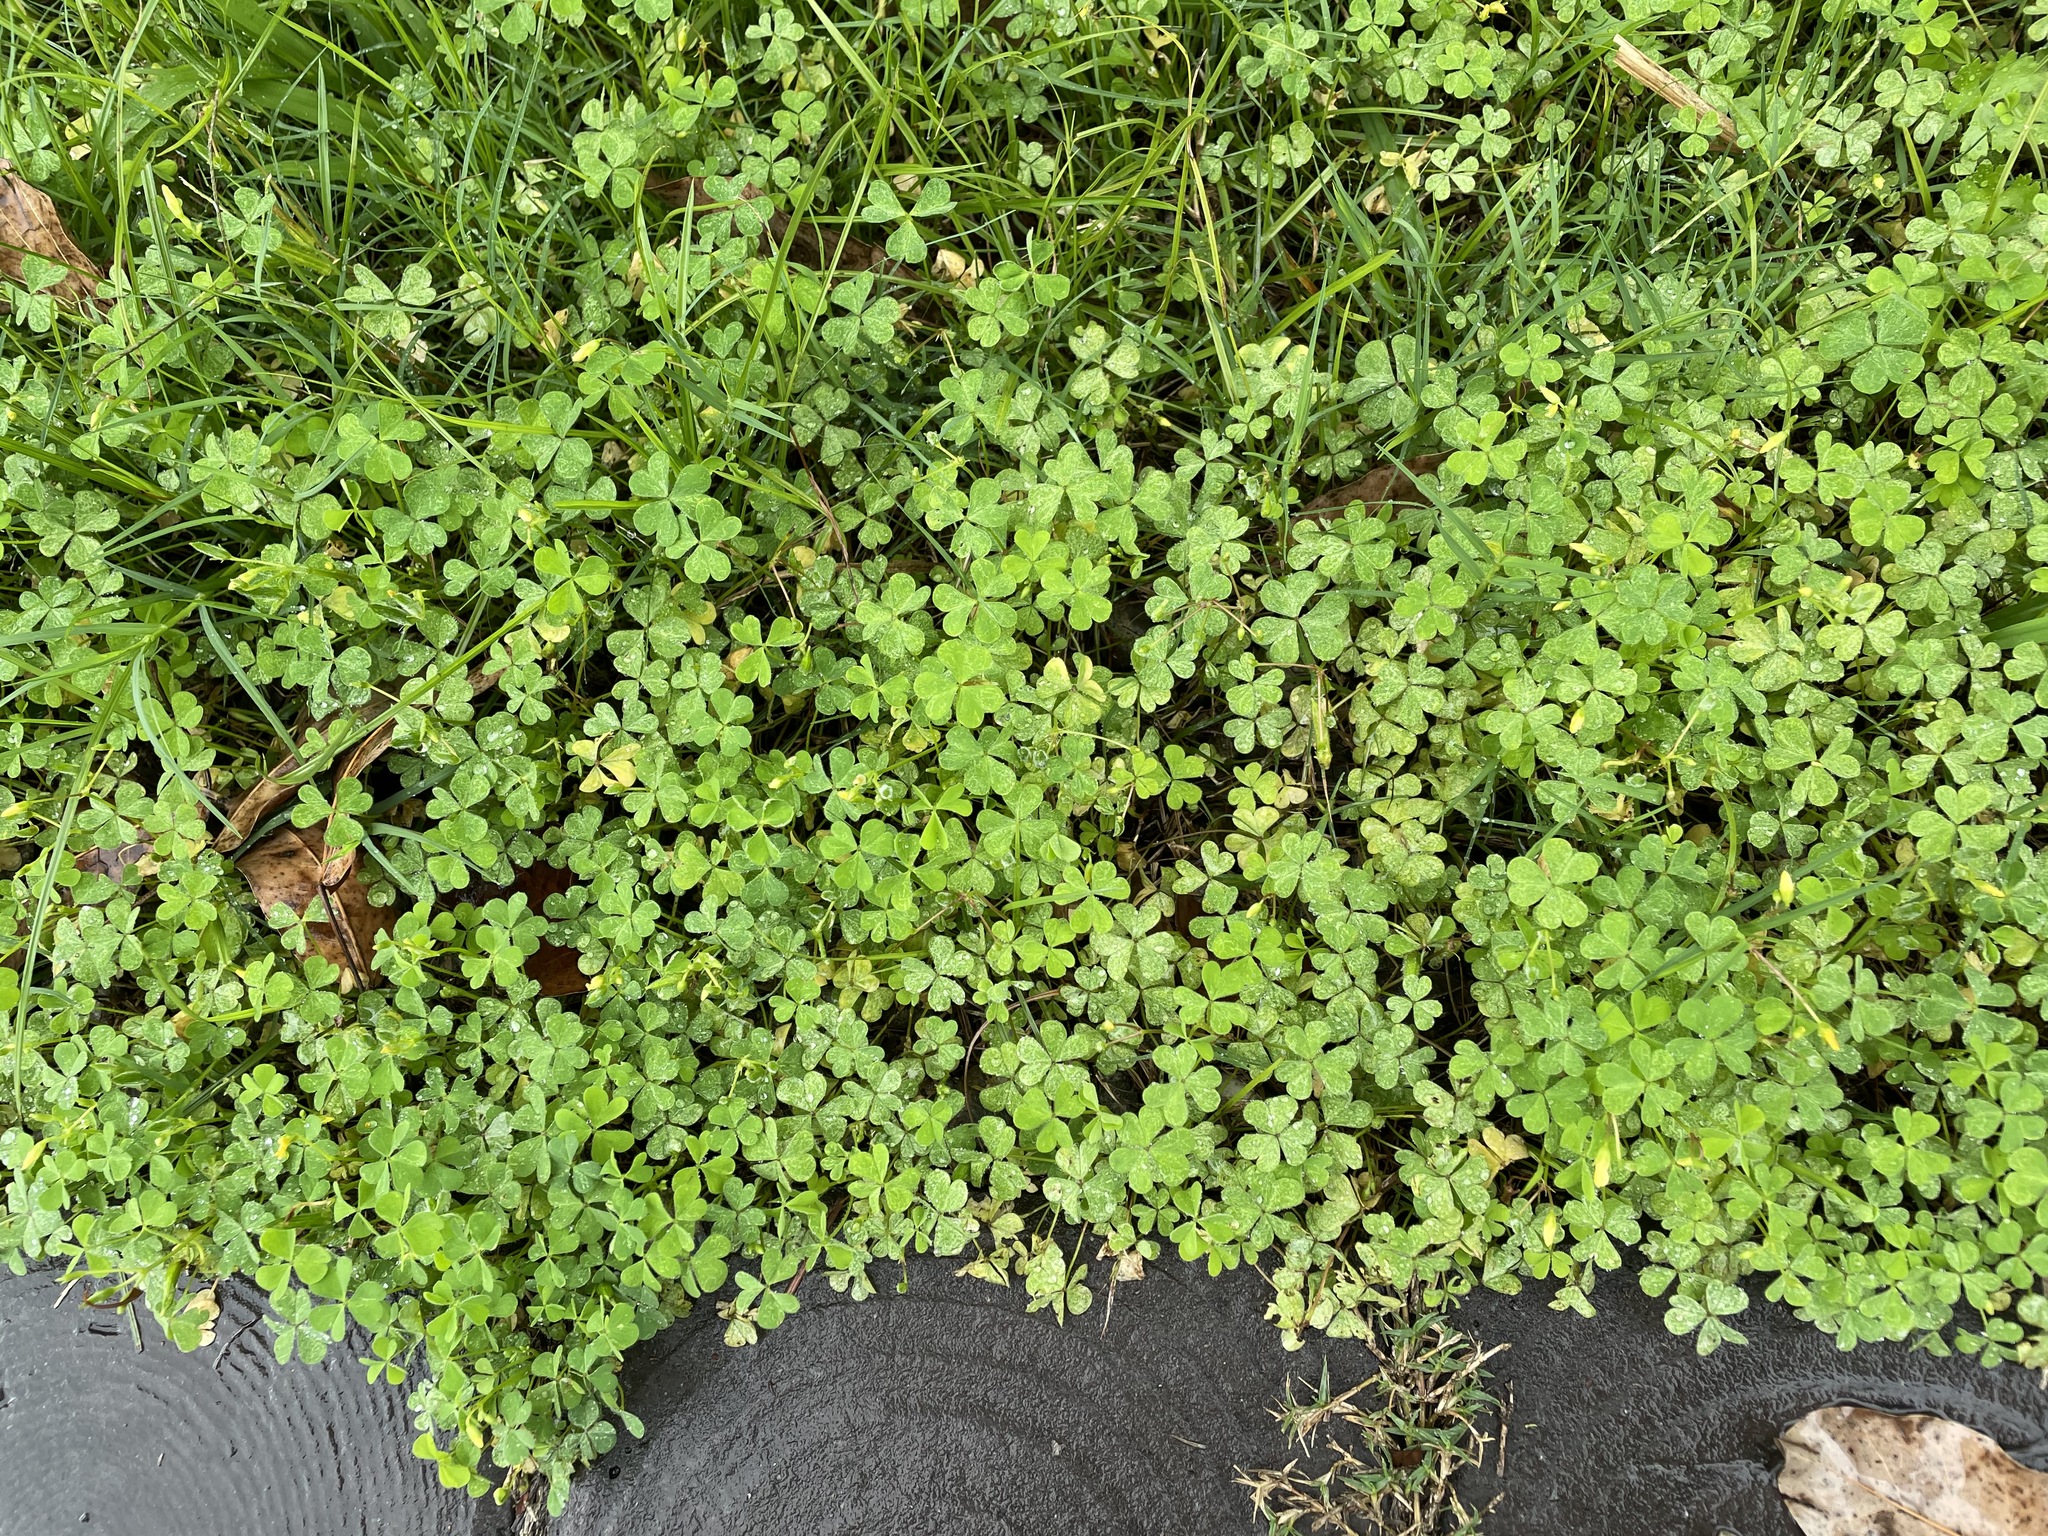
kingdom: Plantae
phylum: Tracheophyta
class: Magnoliopsida
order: Oxalidales
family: Oxalidaceae
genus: Oxalis
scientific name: Oxalis corniculata
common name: Procumbent yellow-sorrel
